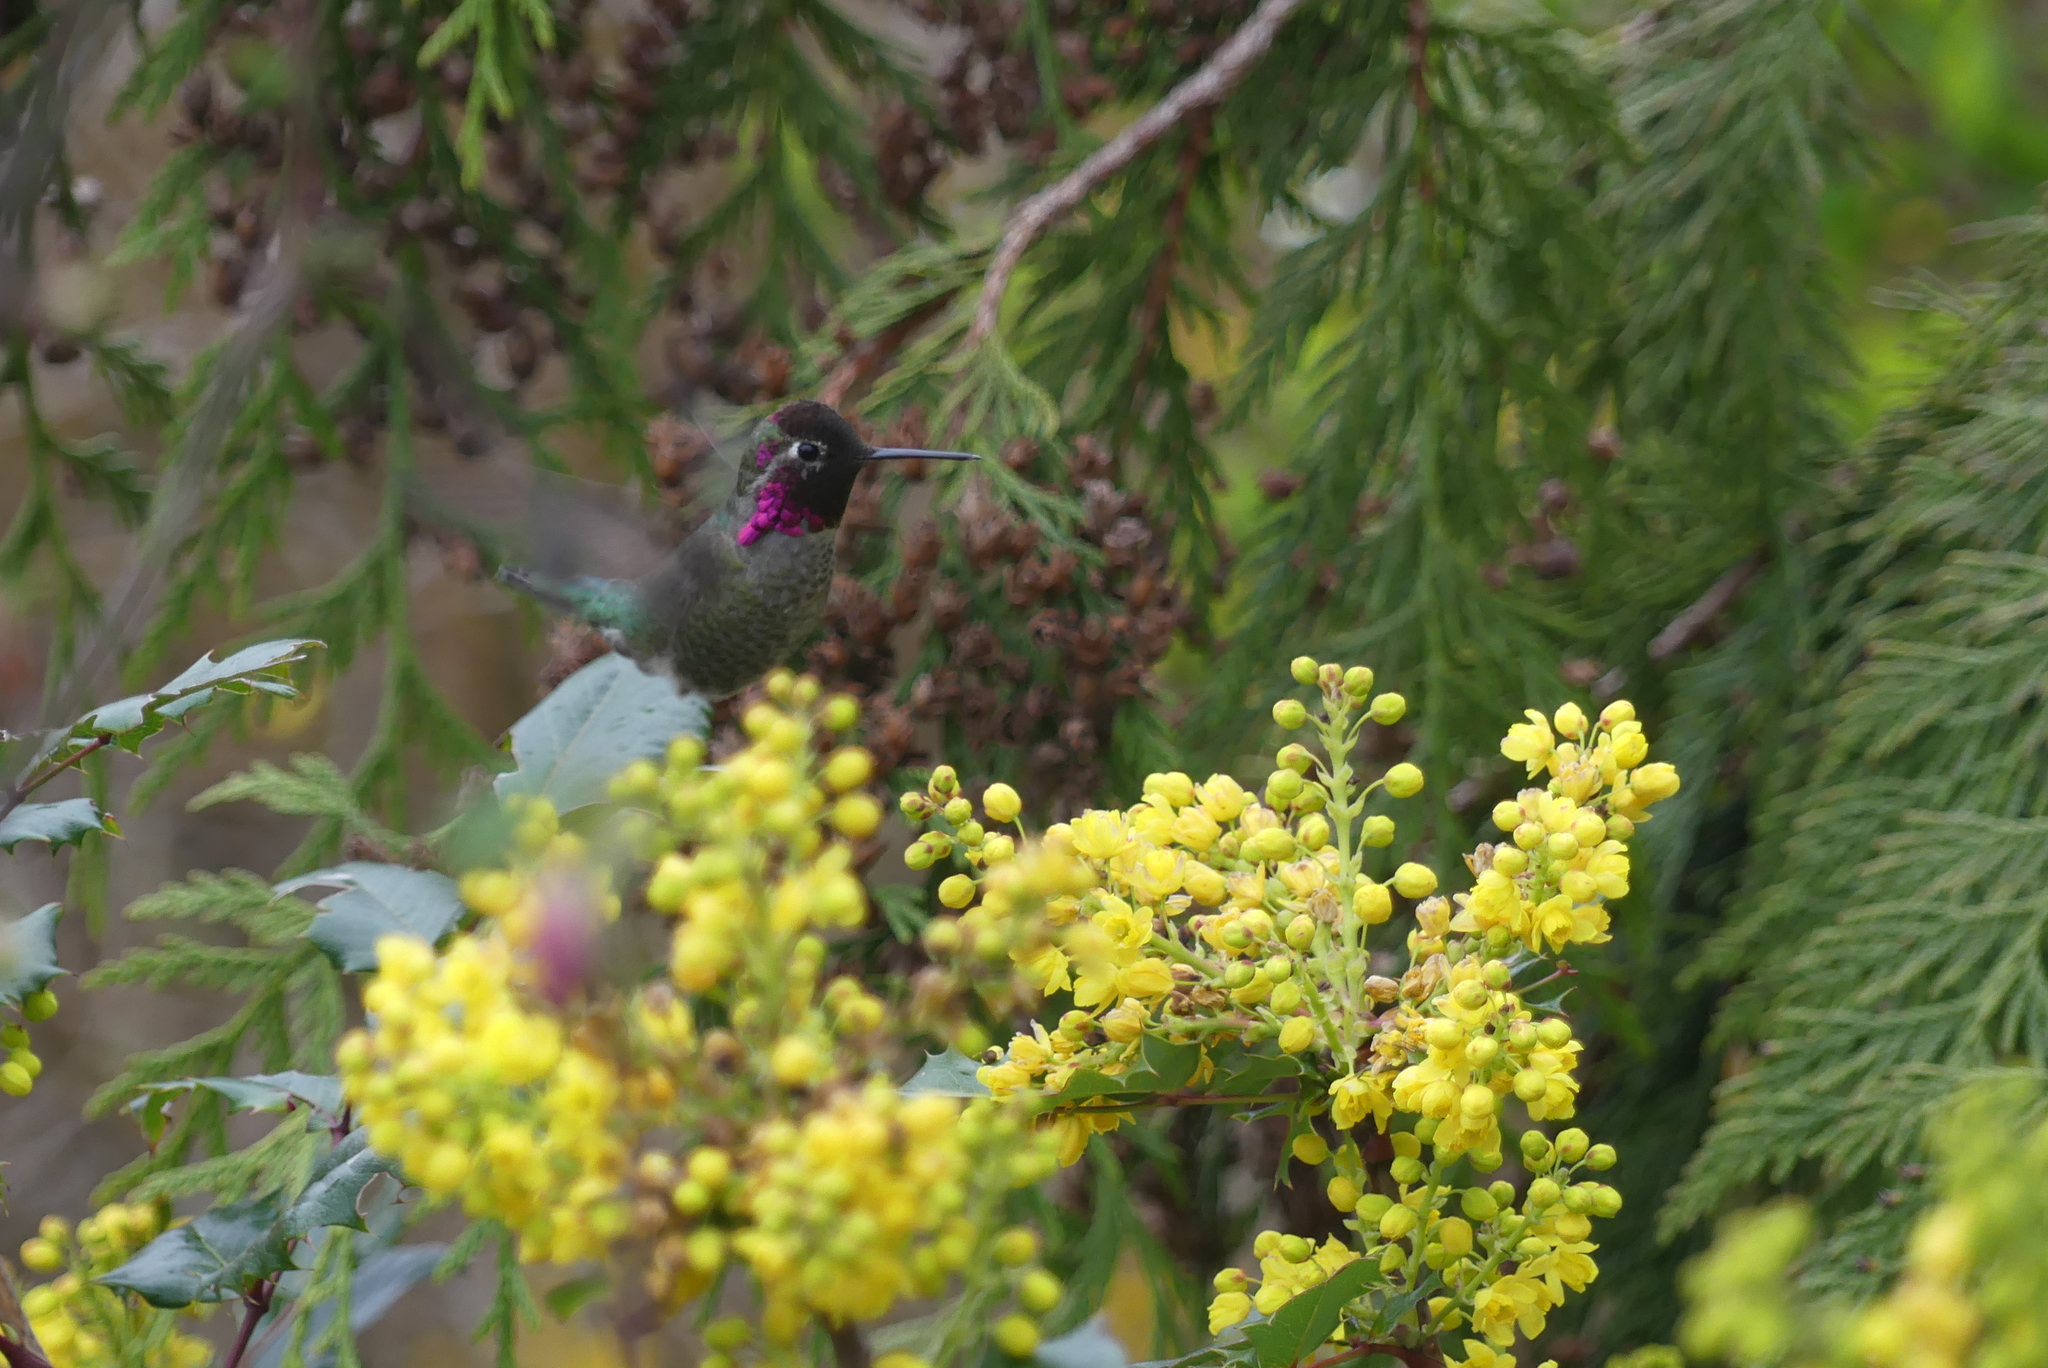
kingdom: Animalia
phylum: Chordata
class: Aves
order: Apodiformes
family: Trochilidae
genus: Calypte
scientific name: Calypte anna
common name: Anna's hummingbird
